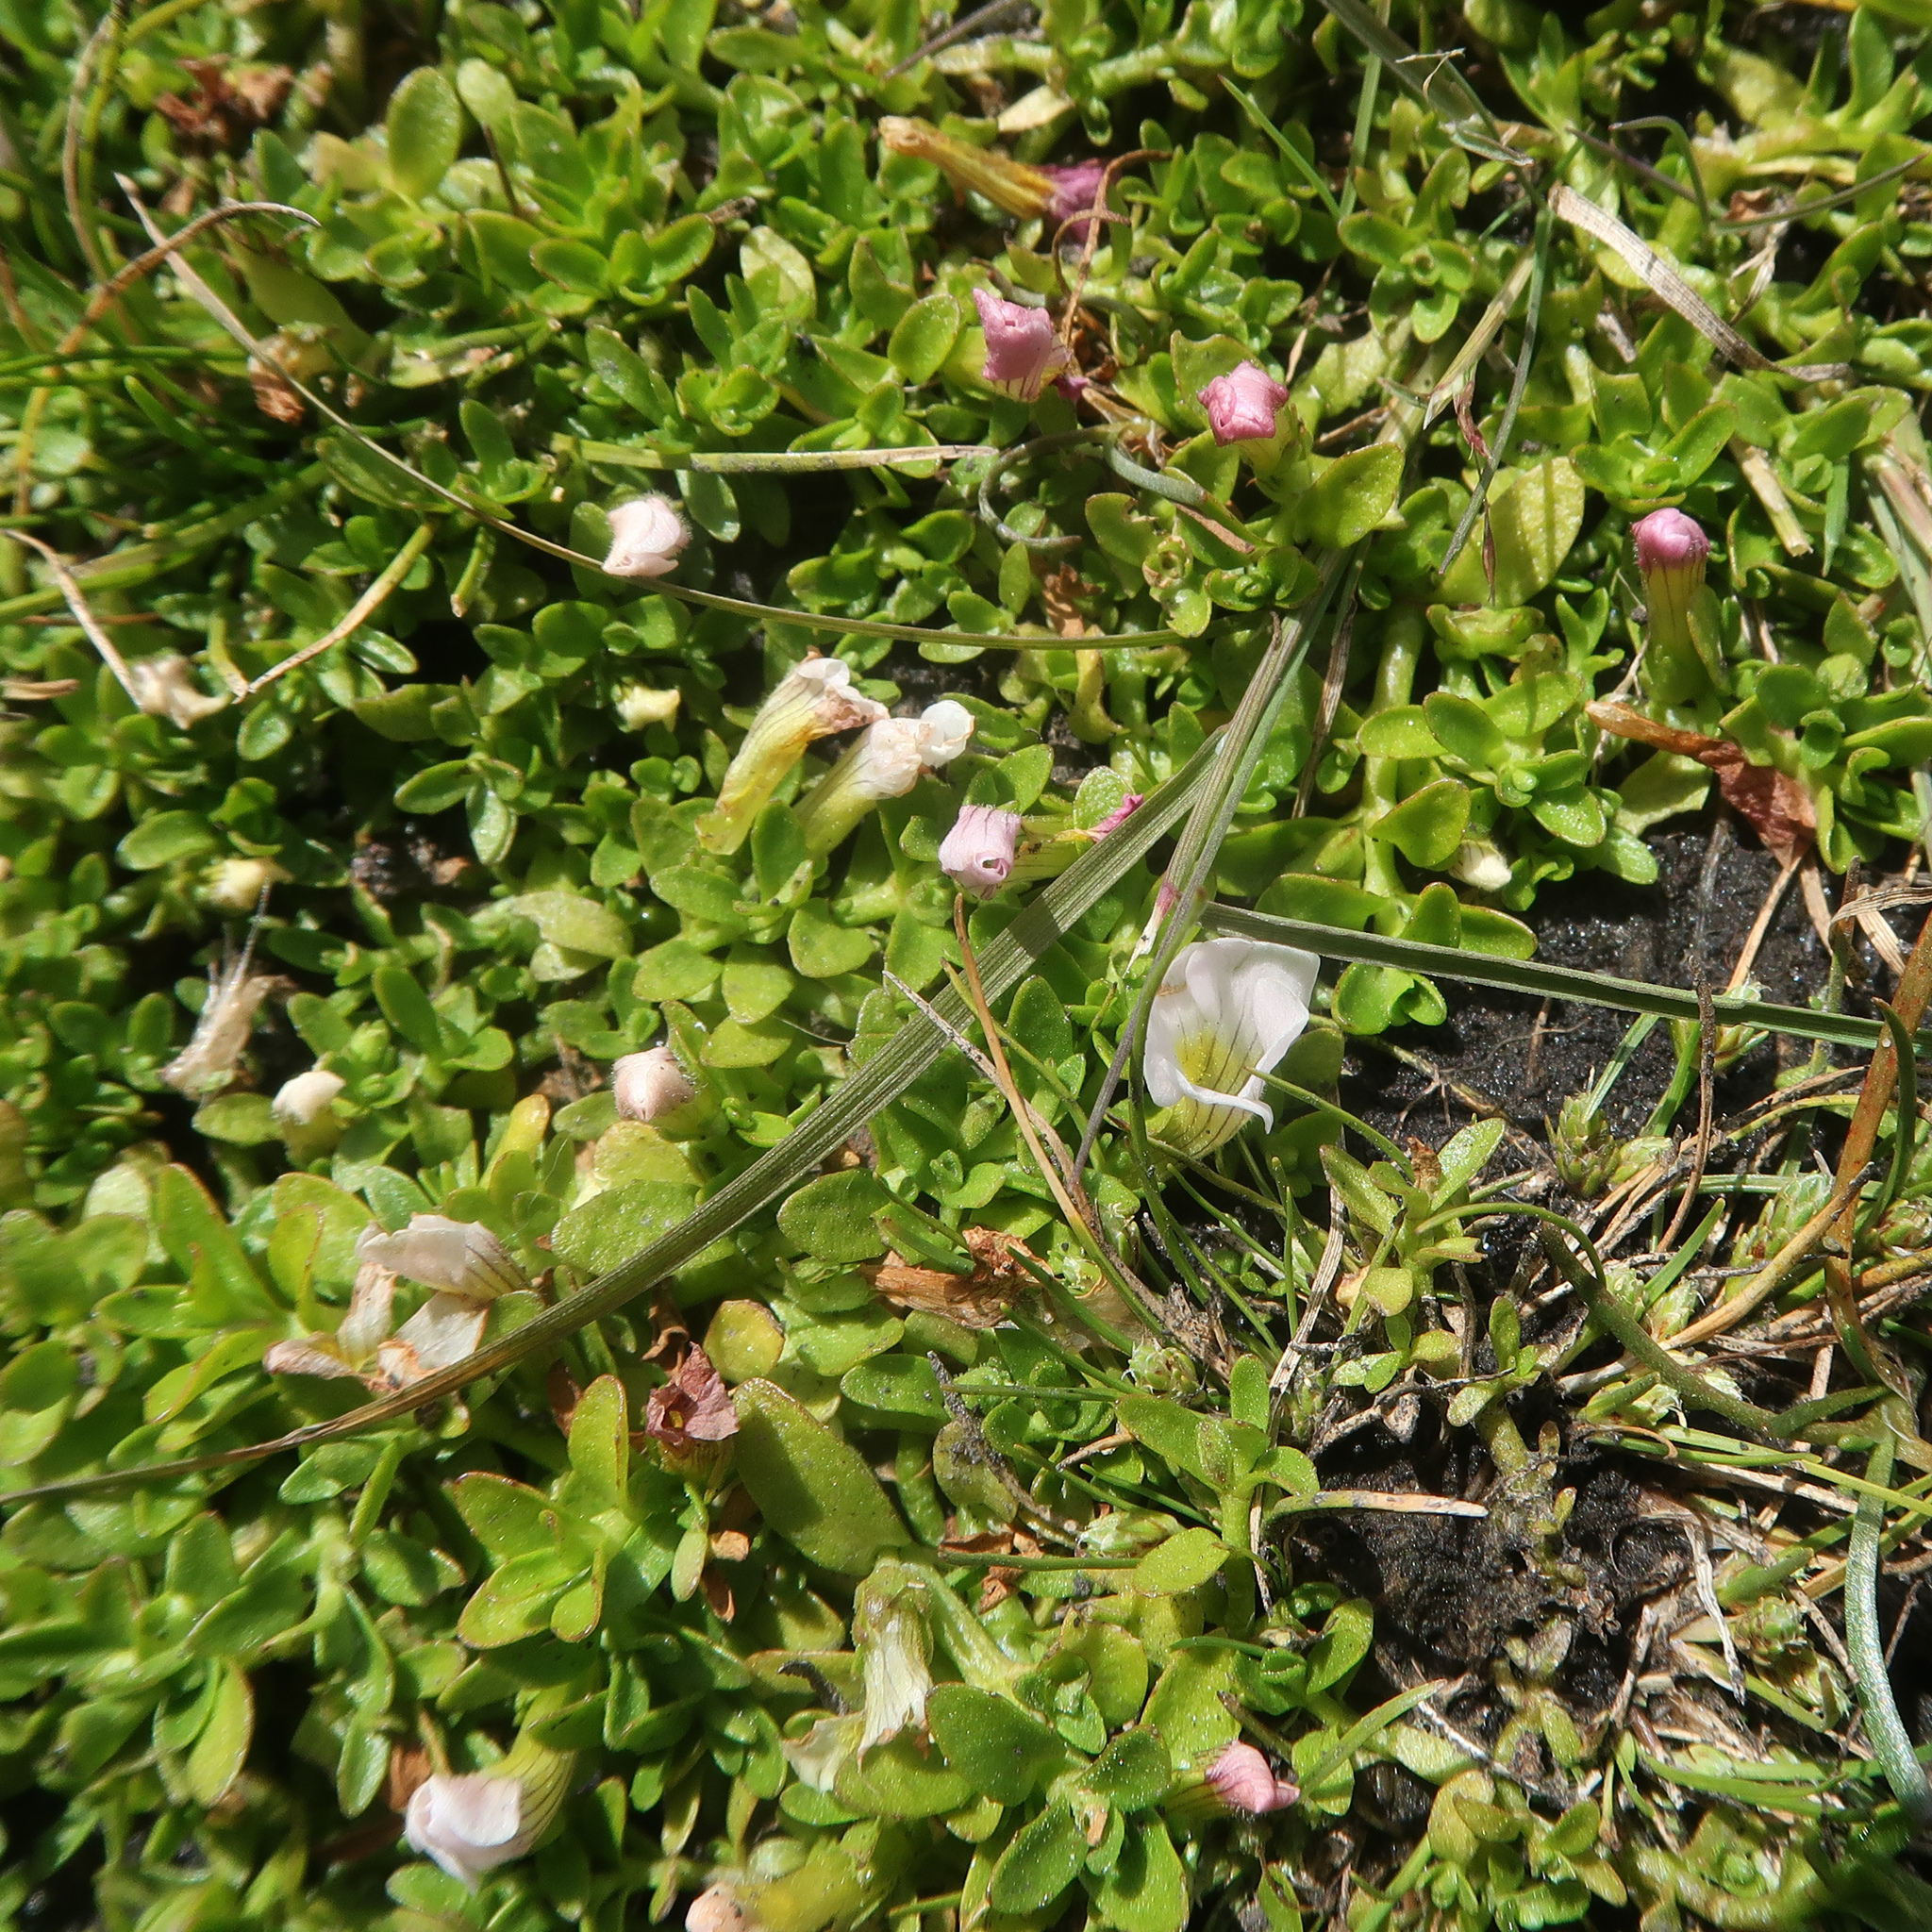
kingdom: Plantae
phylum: Tracheophyta
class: Magnoliopsida
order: Lamiales
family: Plantaginaceae
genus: Gratiola
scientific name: Gratiola nana
